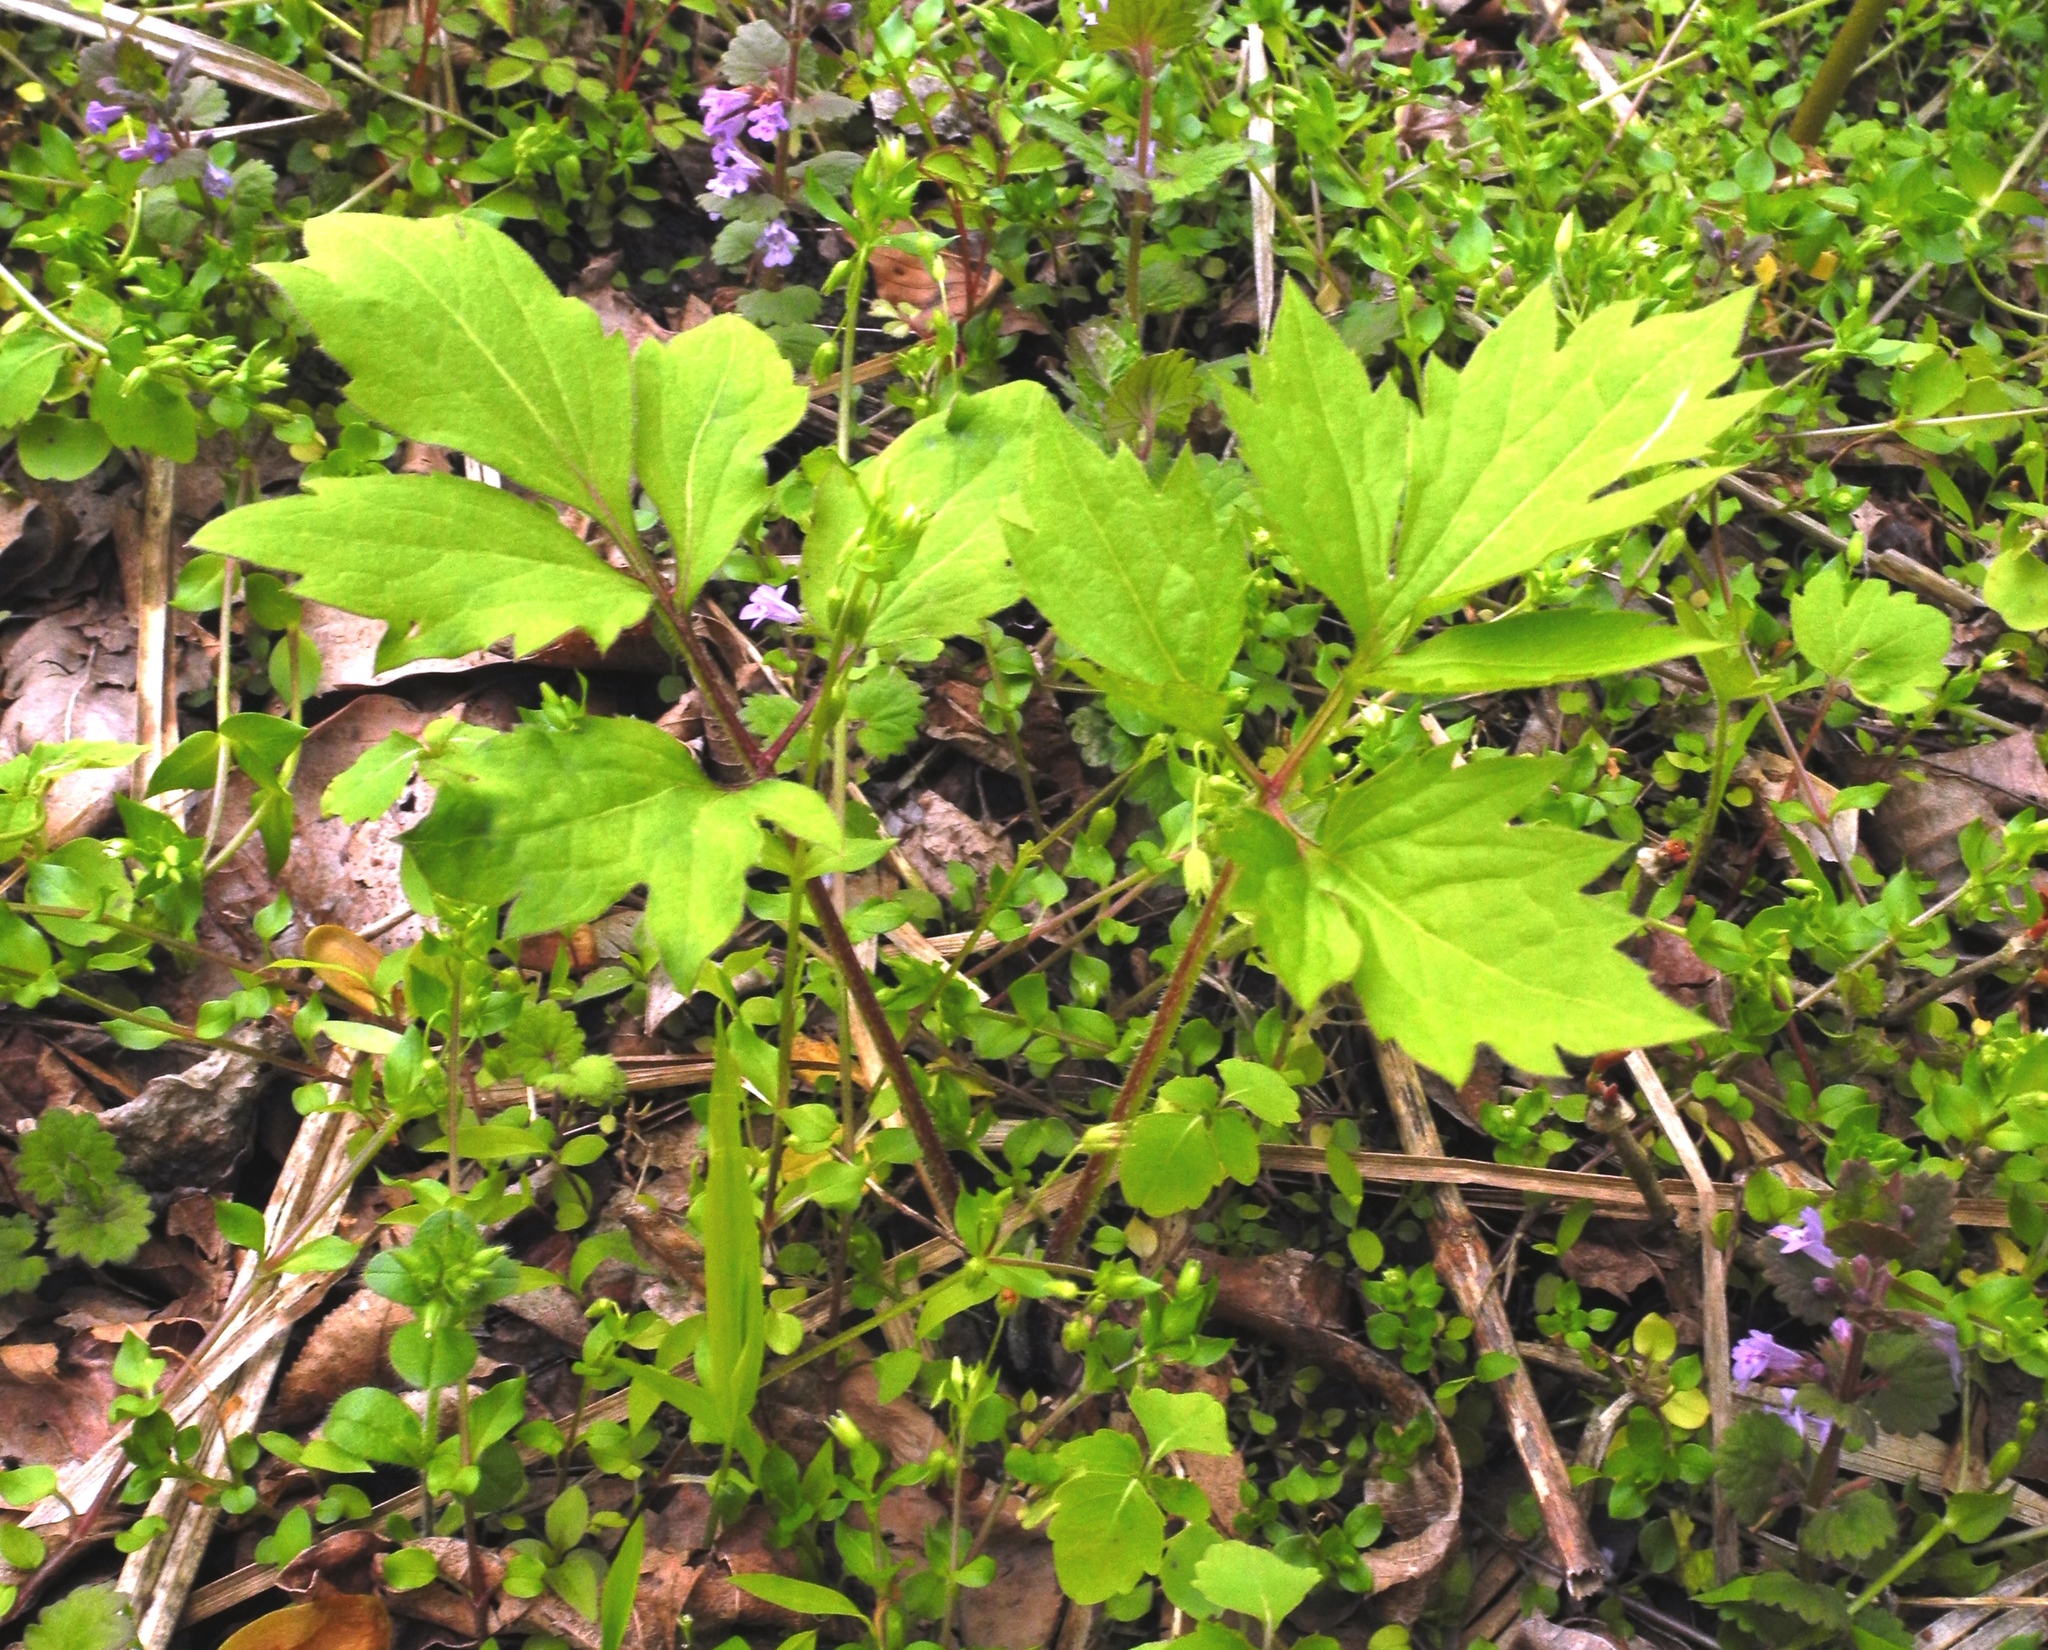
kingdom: Plantae
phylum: Tracheophyta
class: Magnoliopsida
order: Asterales
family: Asteraceae
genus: Rudbeckia
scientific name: Rudbeckia laciniata
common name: Coneflower
